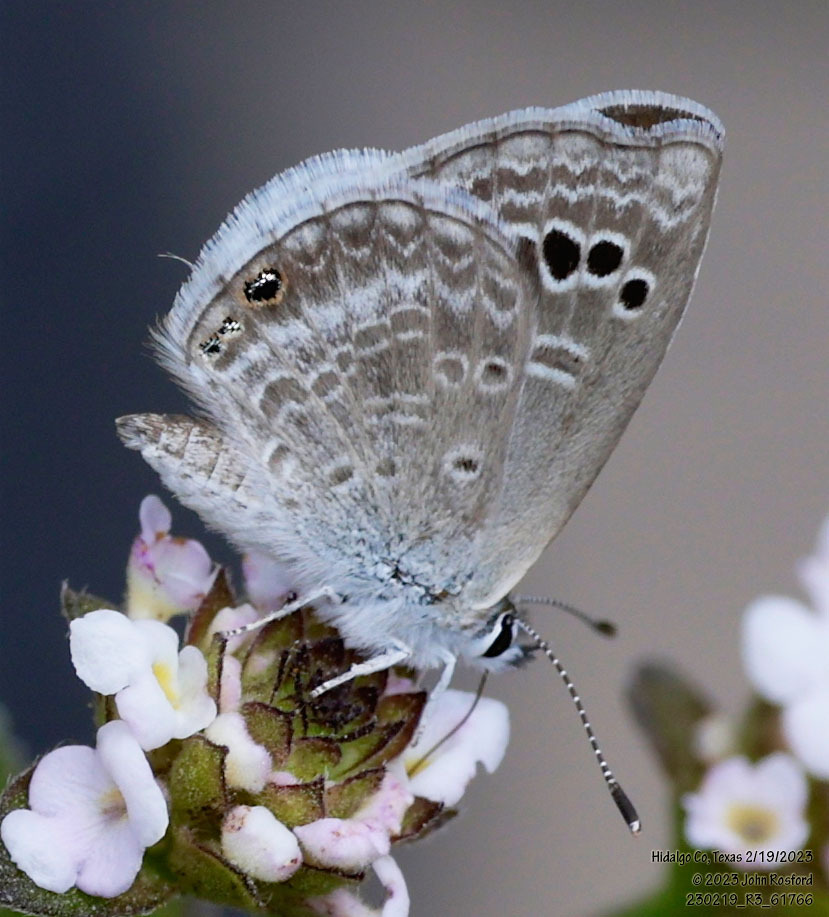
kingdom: Animalia
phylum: Arthropoda
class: Insecta
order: Lepidoptera
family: Lycaenidae
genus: Echinargus
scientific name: Echinargus isola
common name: Reakirt's blue
